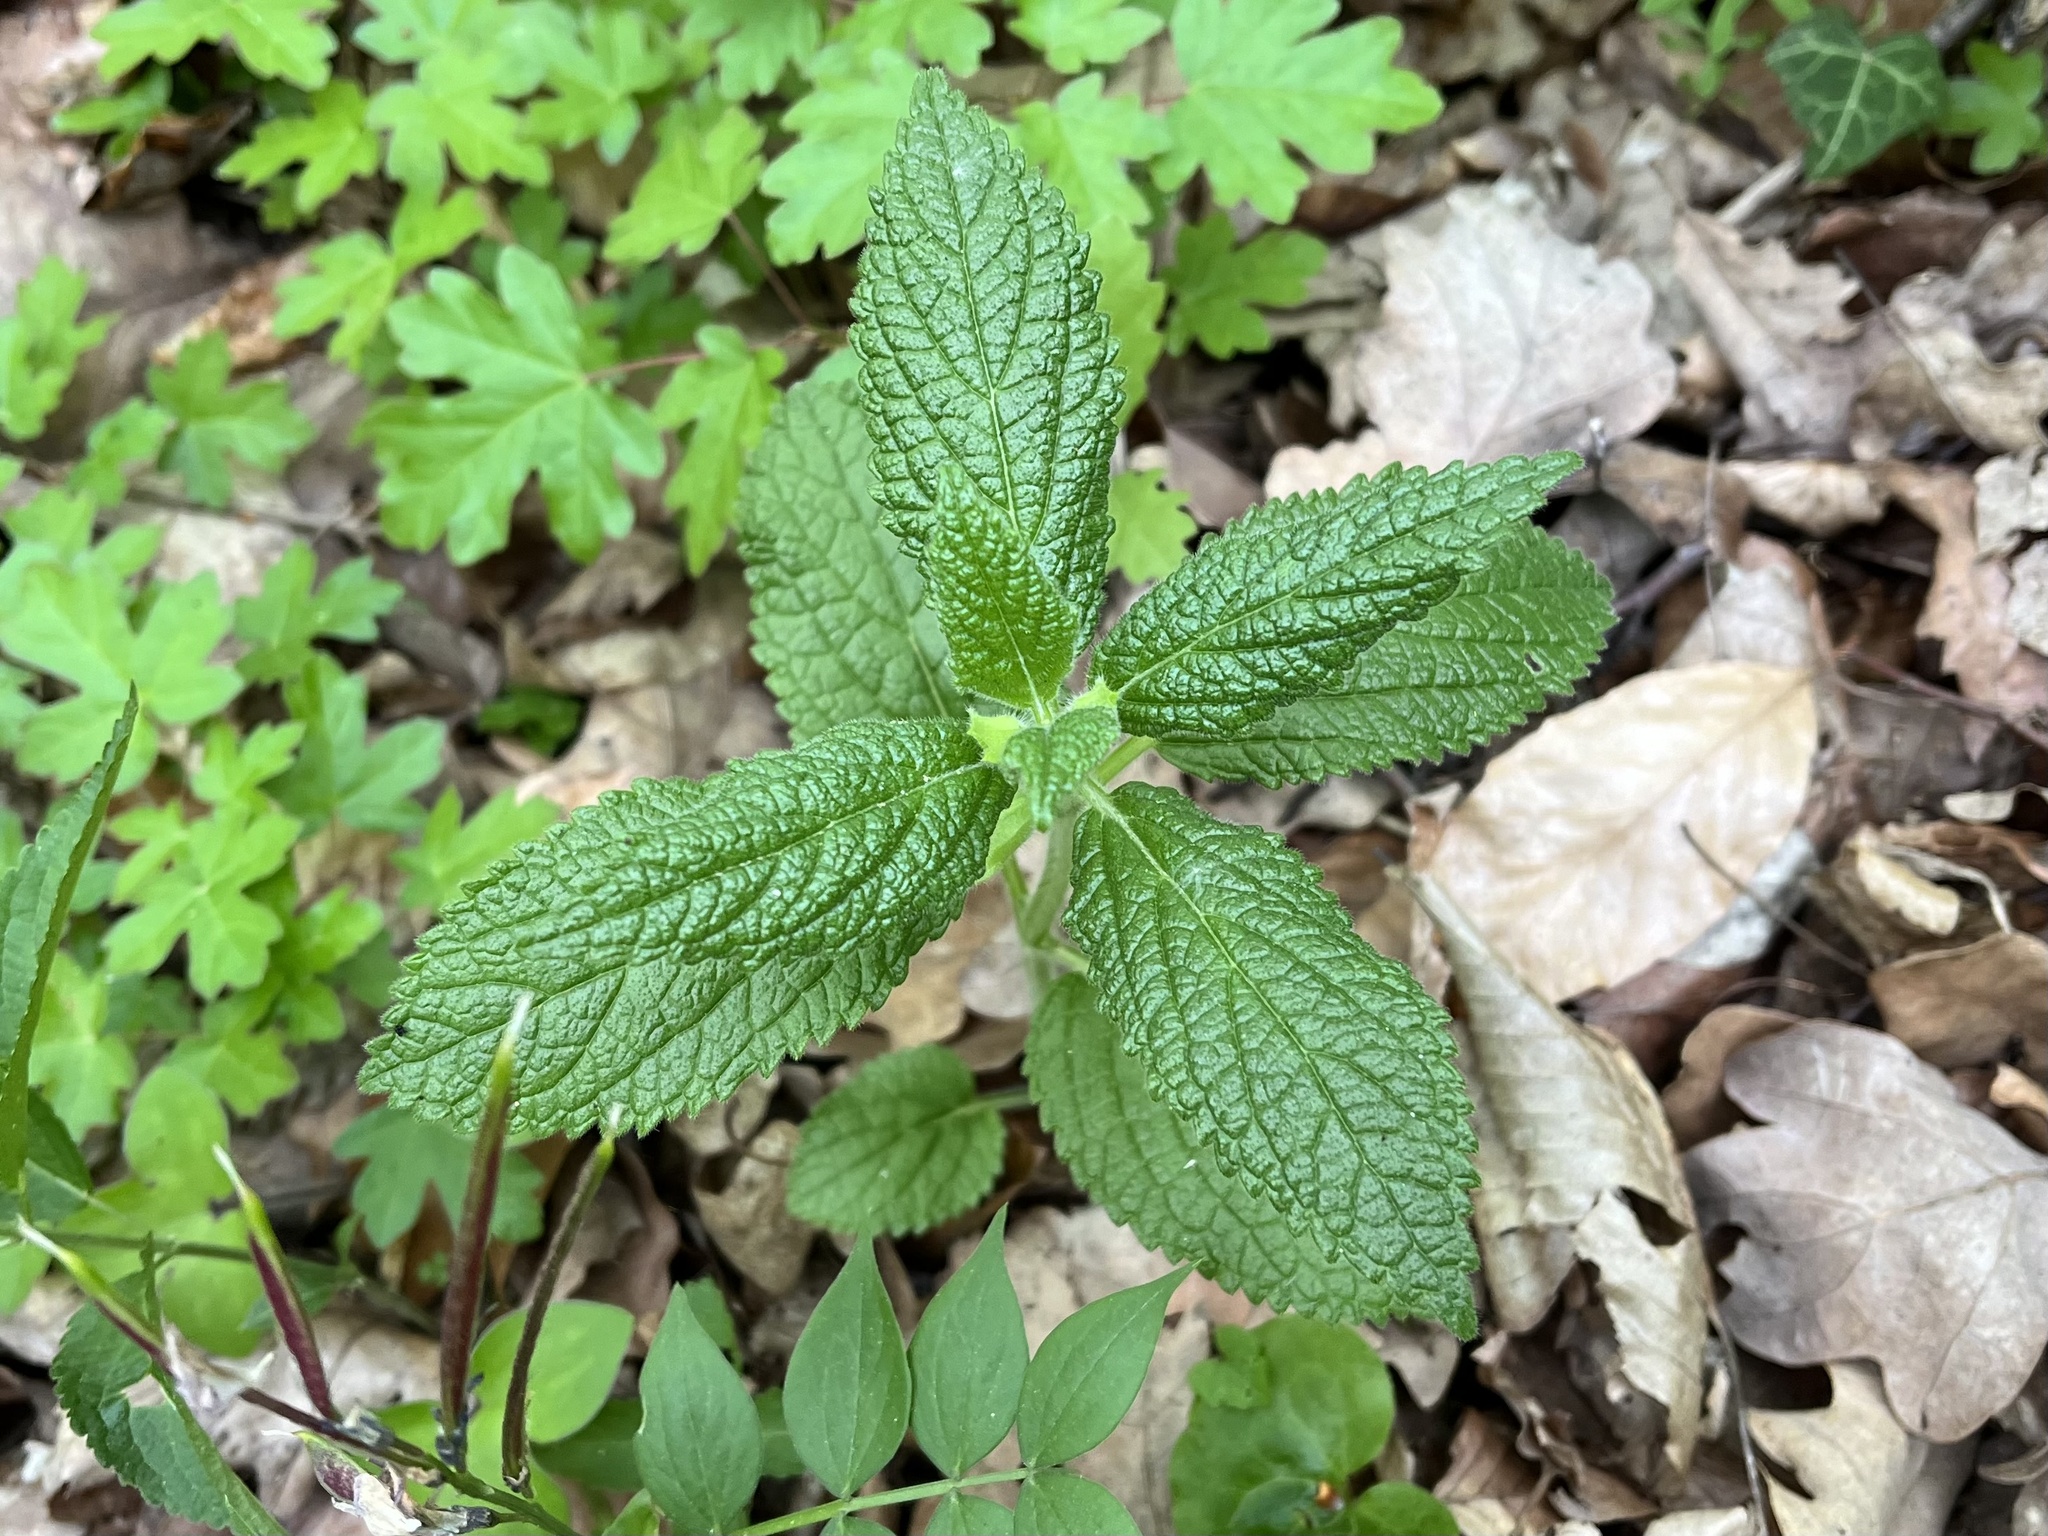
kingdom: Plantae
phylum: Tracheophyta
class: Magnoliopsida
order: Lamiales
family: Lamiaceae
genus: Melittis
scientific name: Melittis melissophyllum
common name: Bastard balm
